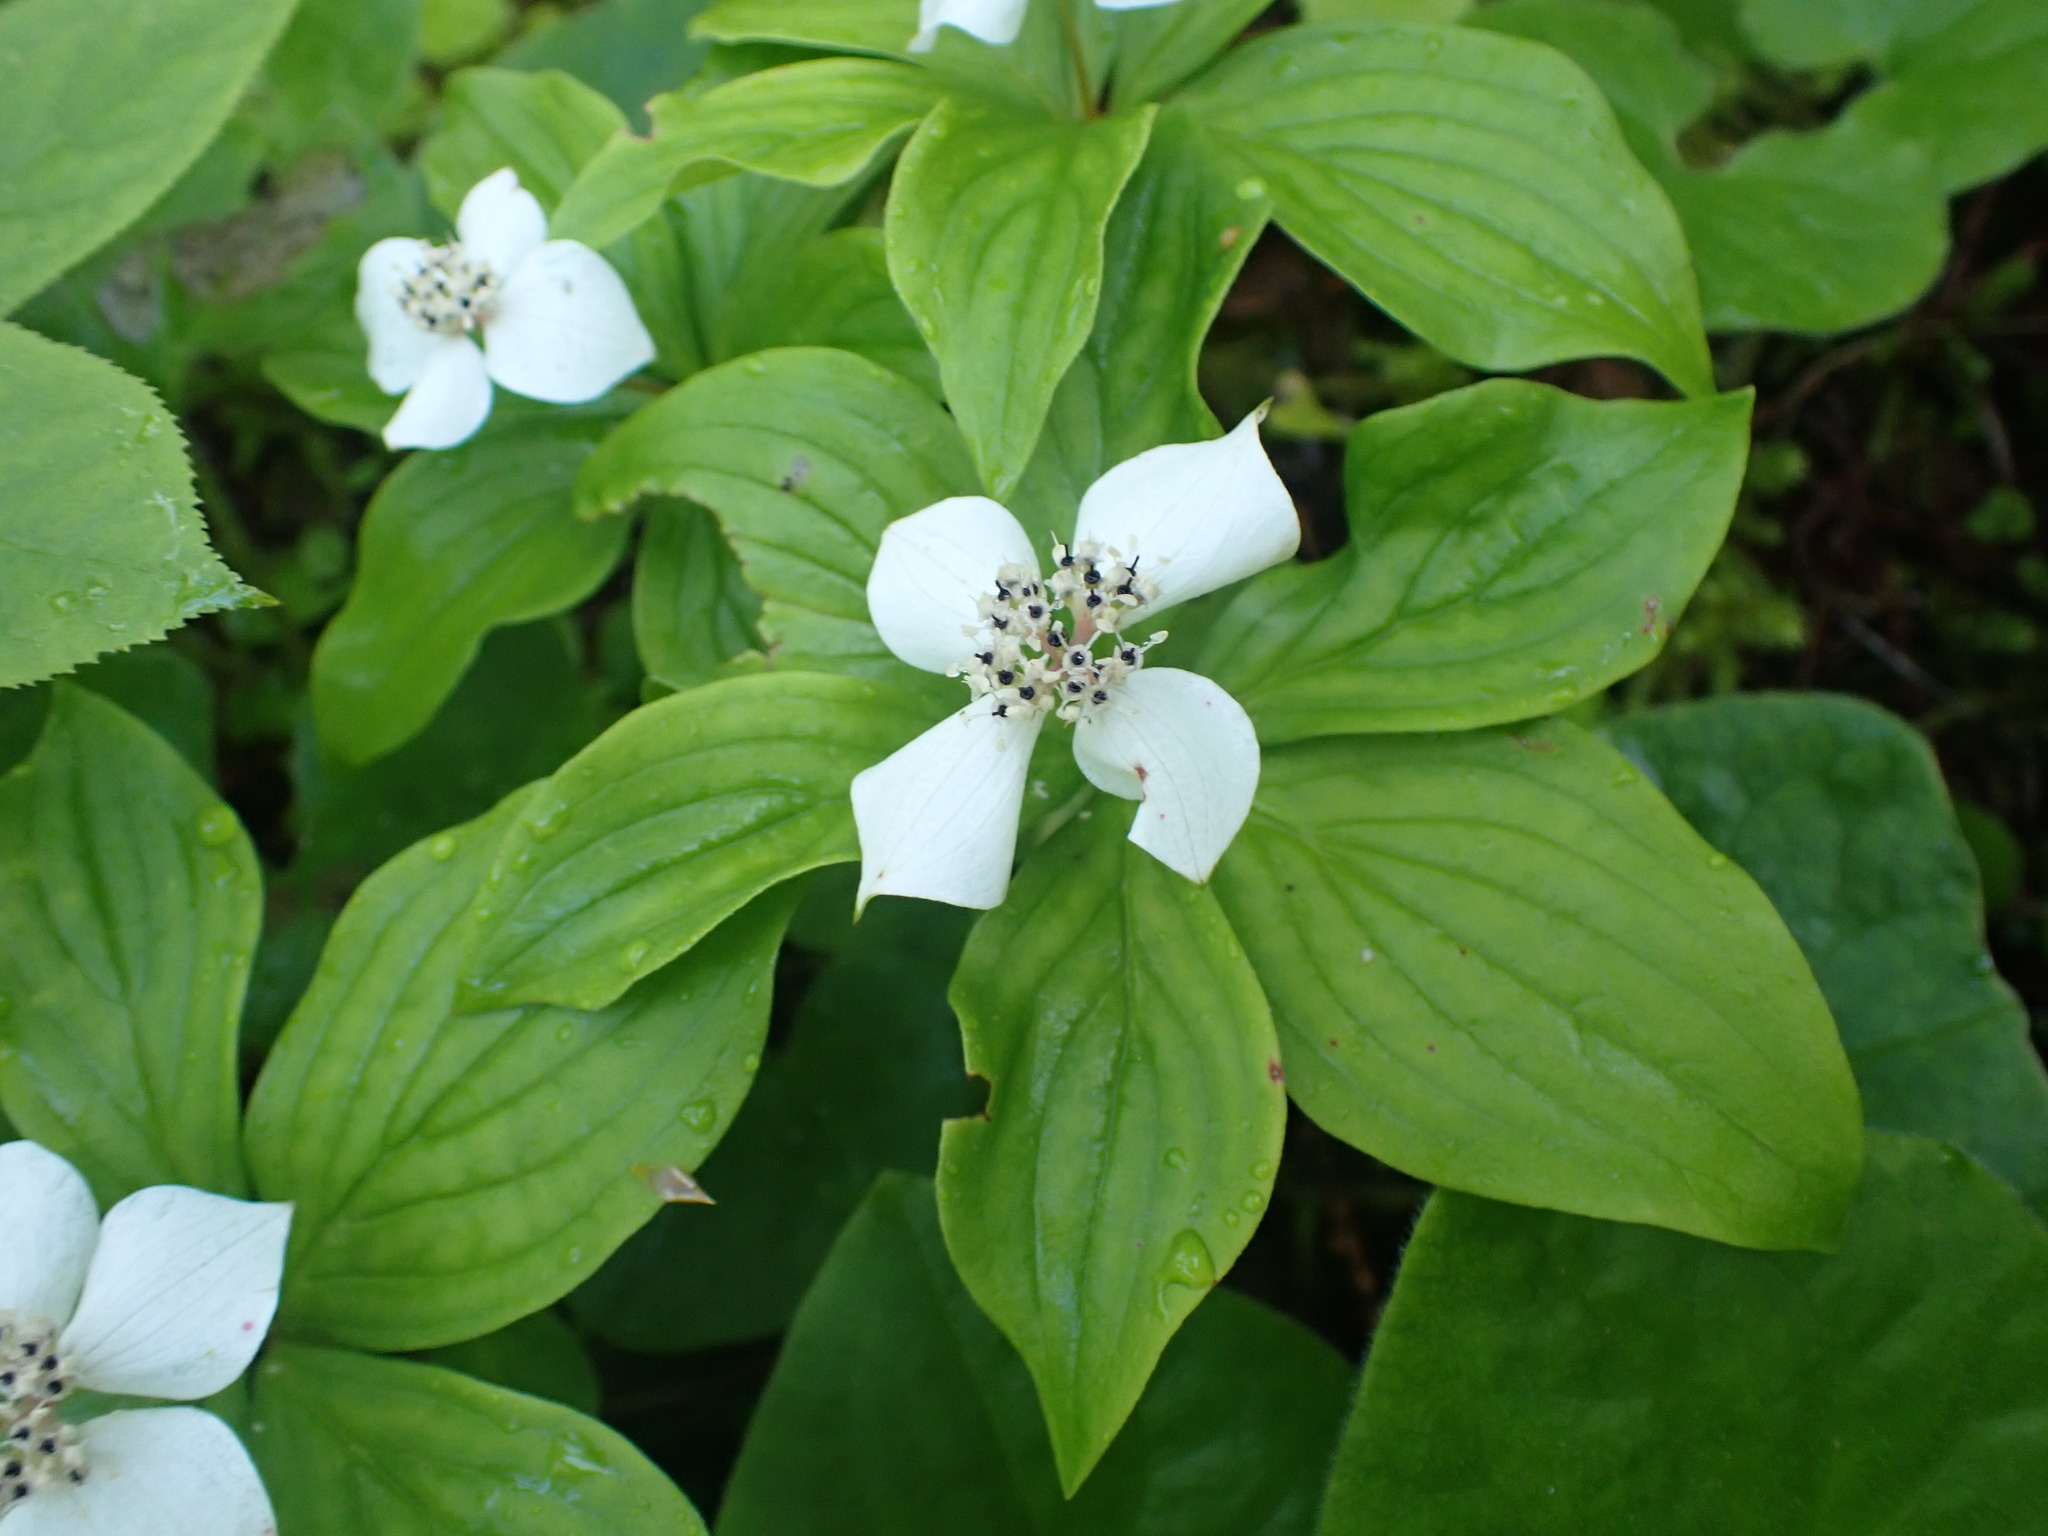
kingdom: Plantae
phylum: Tracheophyta
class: Magnoliopsida
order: Cornales
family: Cornaceae
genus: Cornus
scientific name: Cornus canadensis
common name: Creeping dogwood
